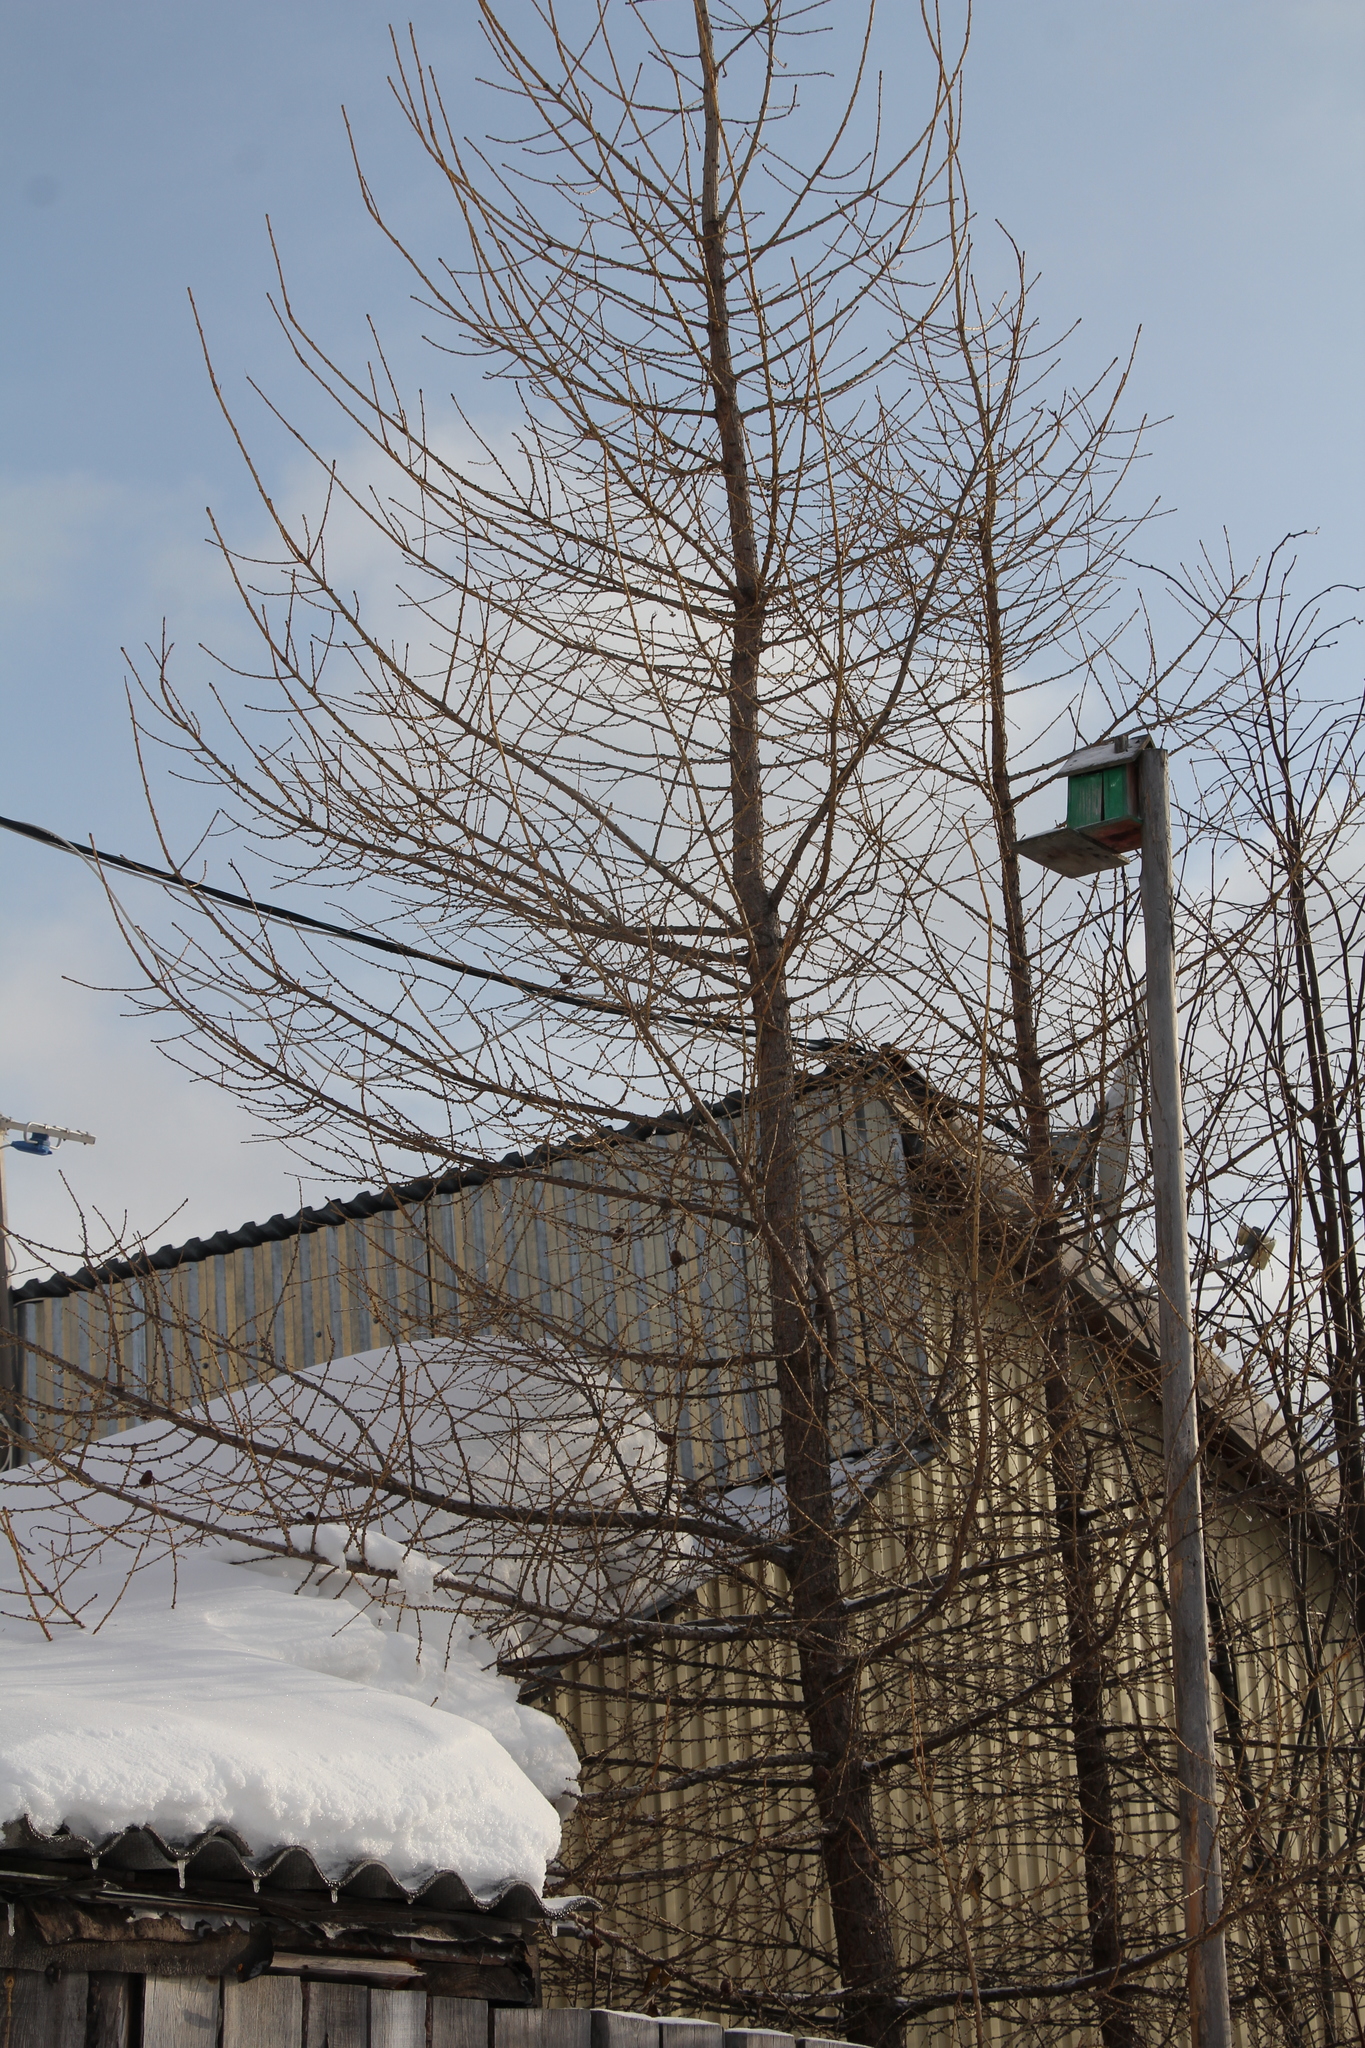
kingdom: Plantae
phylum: Tracheophyta
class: Pinopsida
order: Pinales
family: Pinaceae
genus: Larix
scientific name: Larix sibirica
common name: Siberian larch
